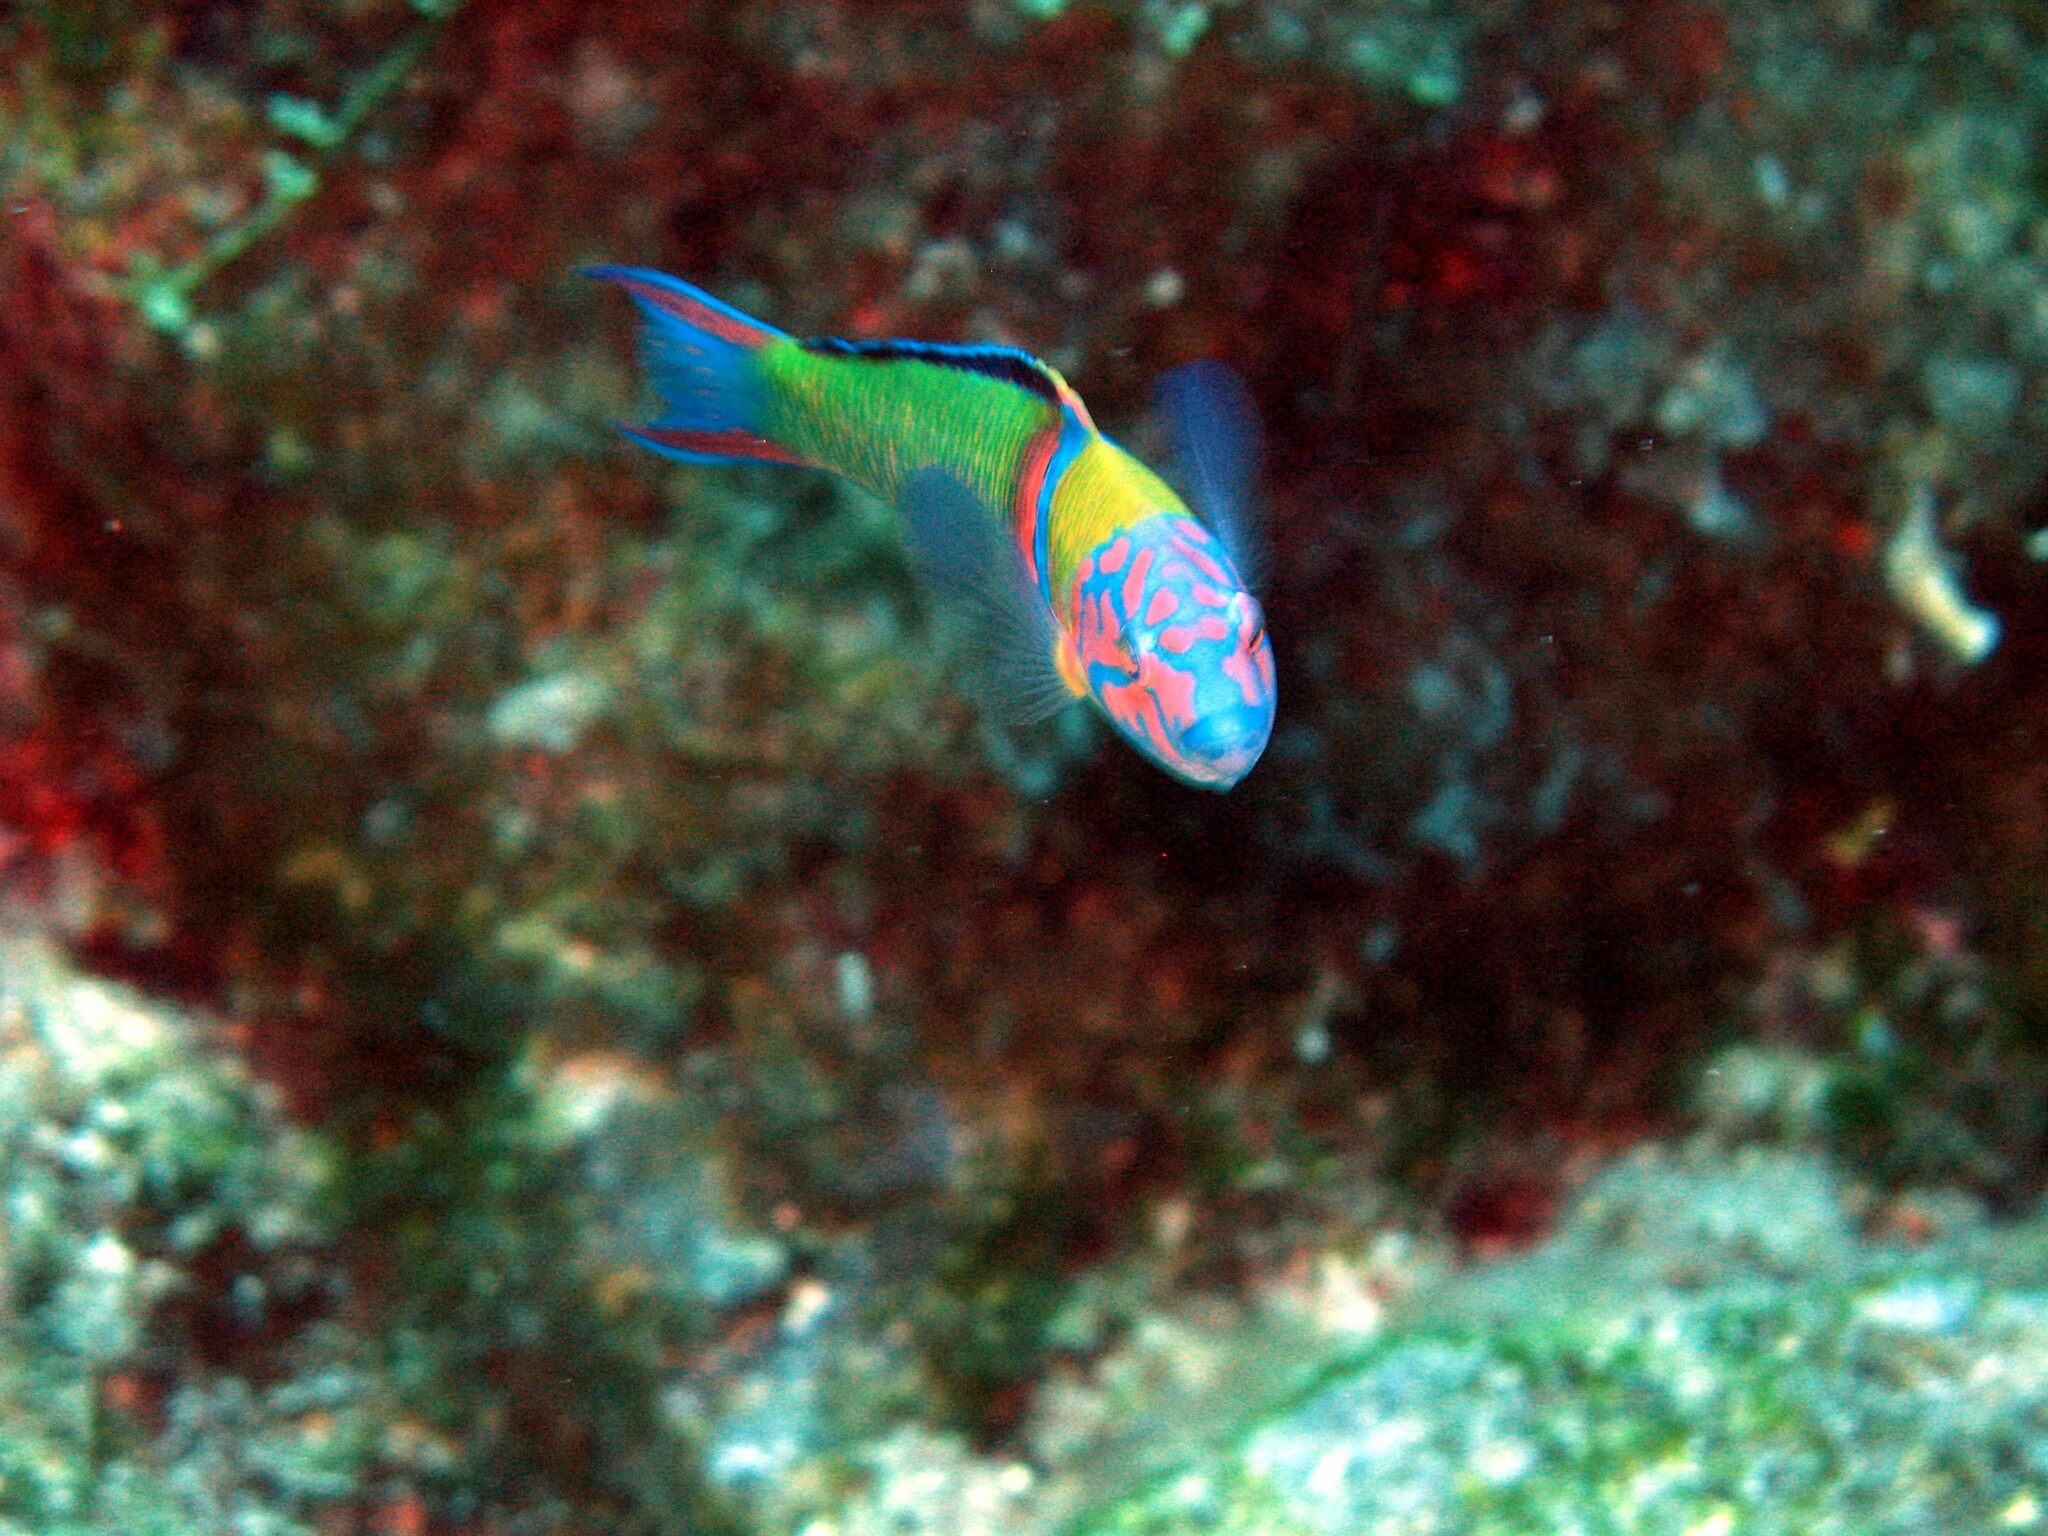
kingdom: Animalia
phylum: Chordata
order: Perciformes
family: Labridae
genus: Thalassoma
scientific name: Thalassoma pavo
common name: Ornate wrasse
